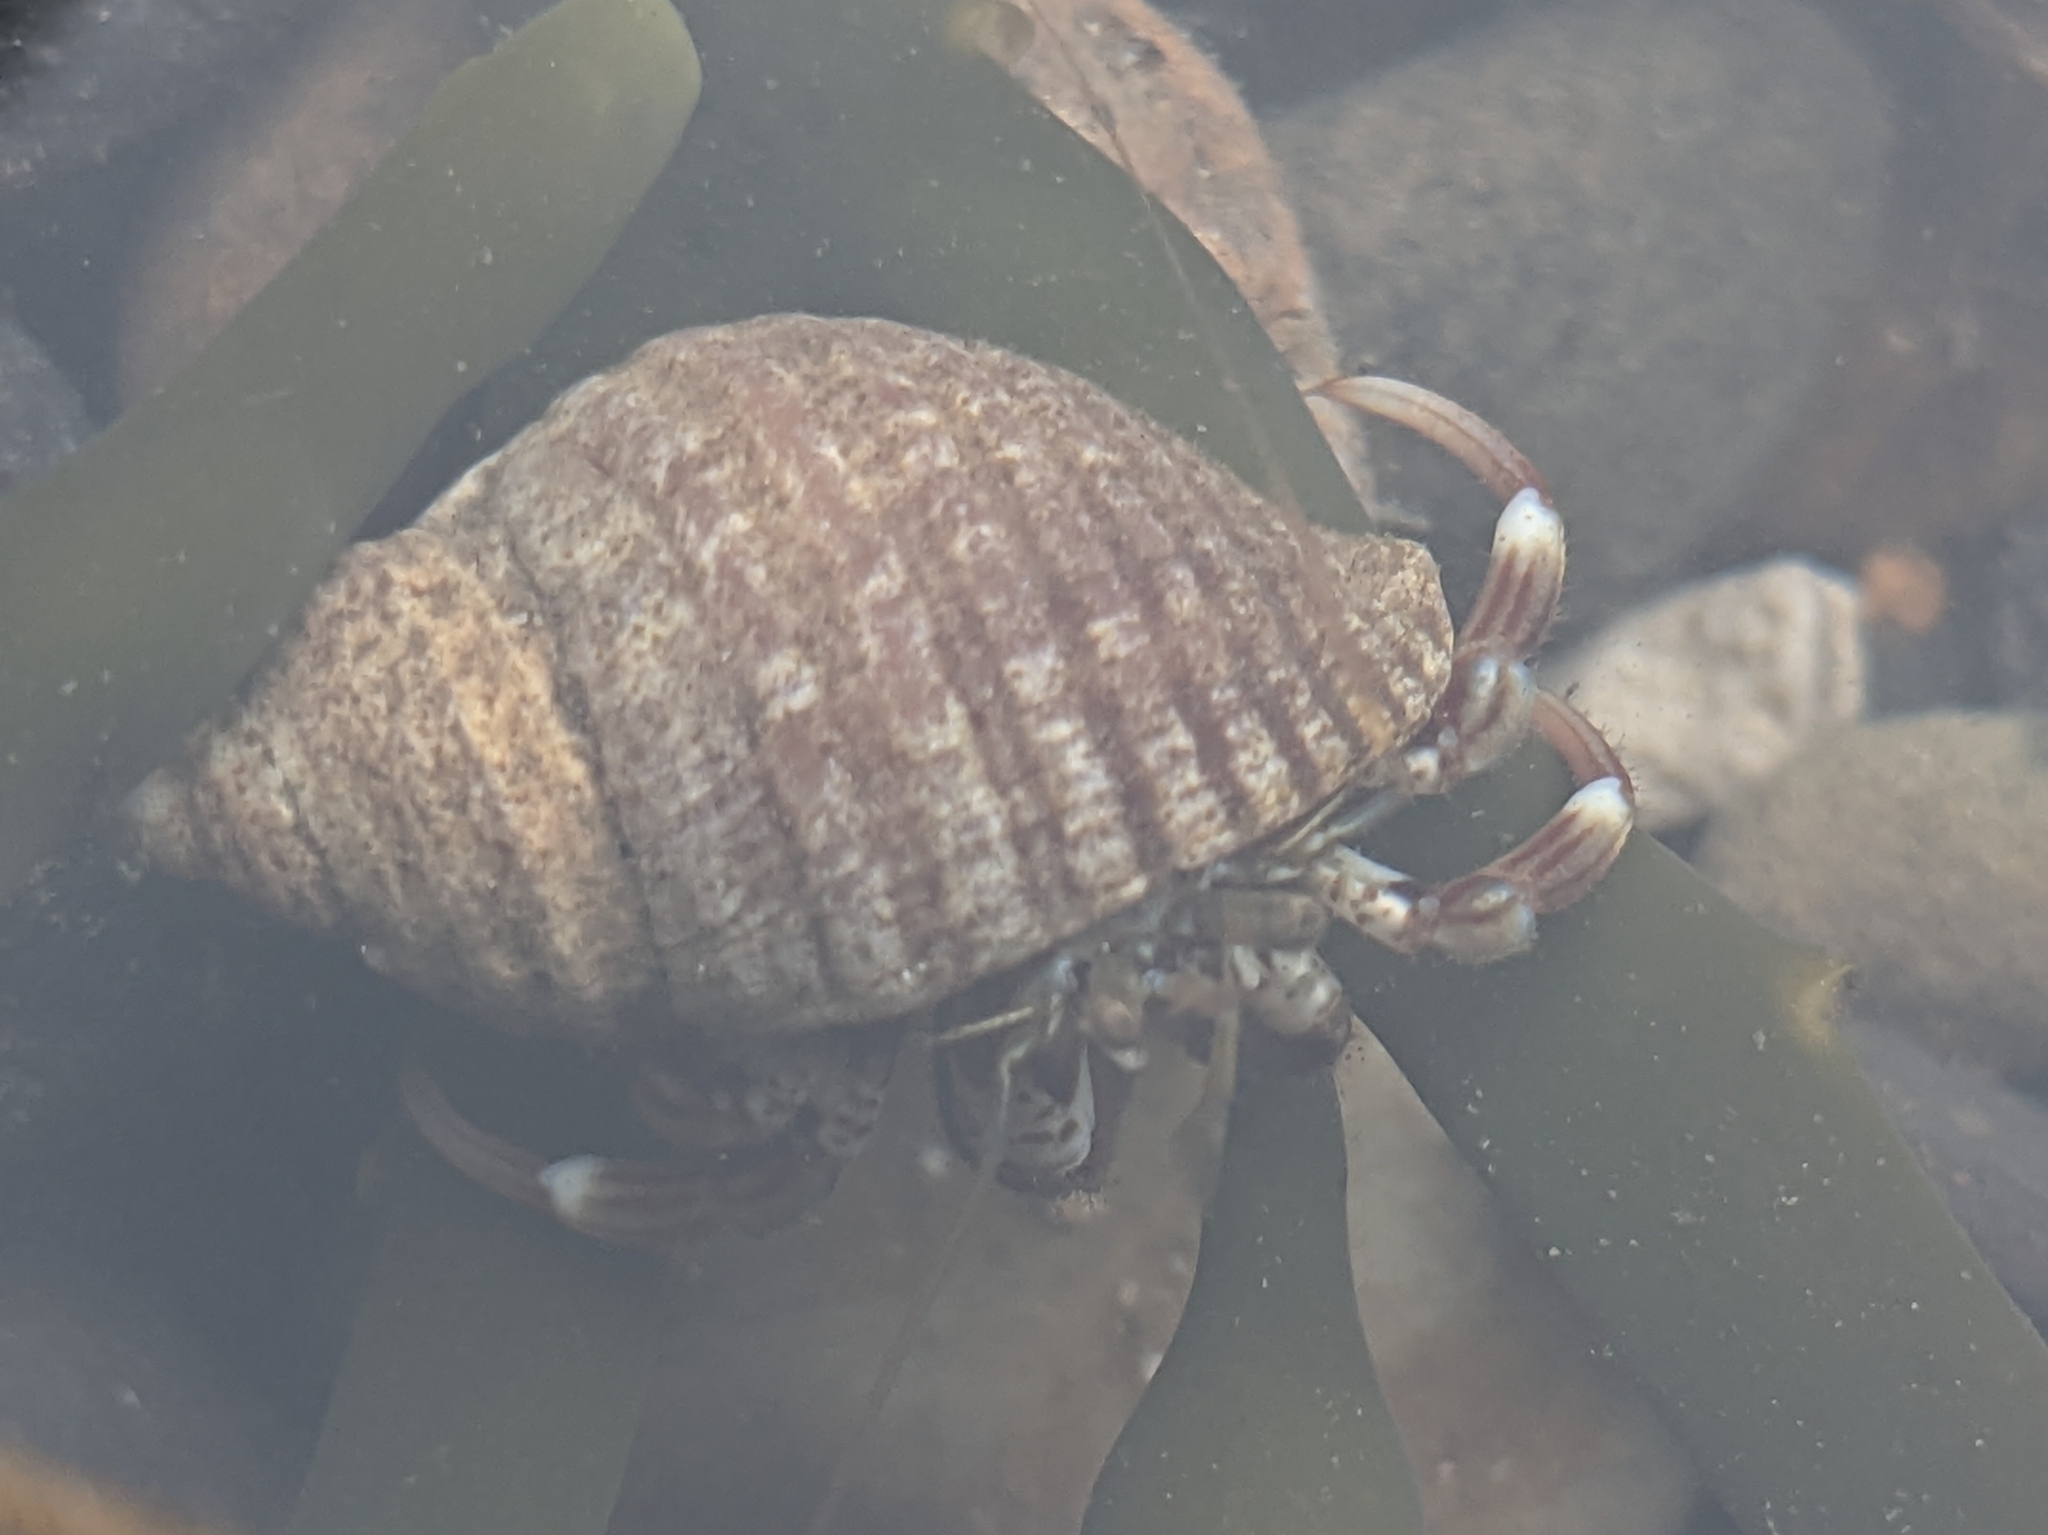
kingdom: Animalia
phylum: Arthropoda
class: Malacostraca
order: Decapoda
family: Paguridae
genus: Pagurus
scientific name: Pagurus bernhardus
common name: Hermit crab
